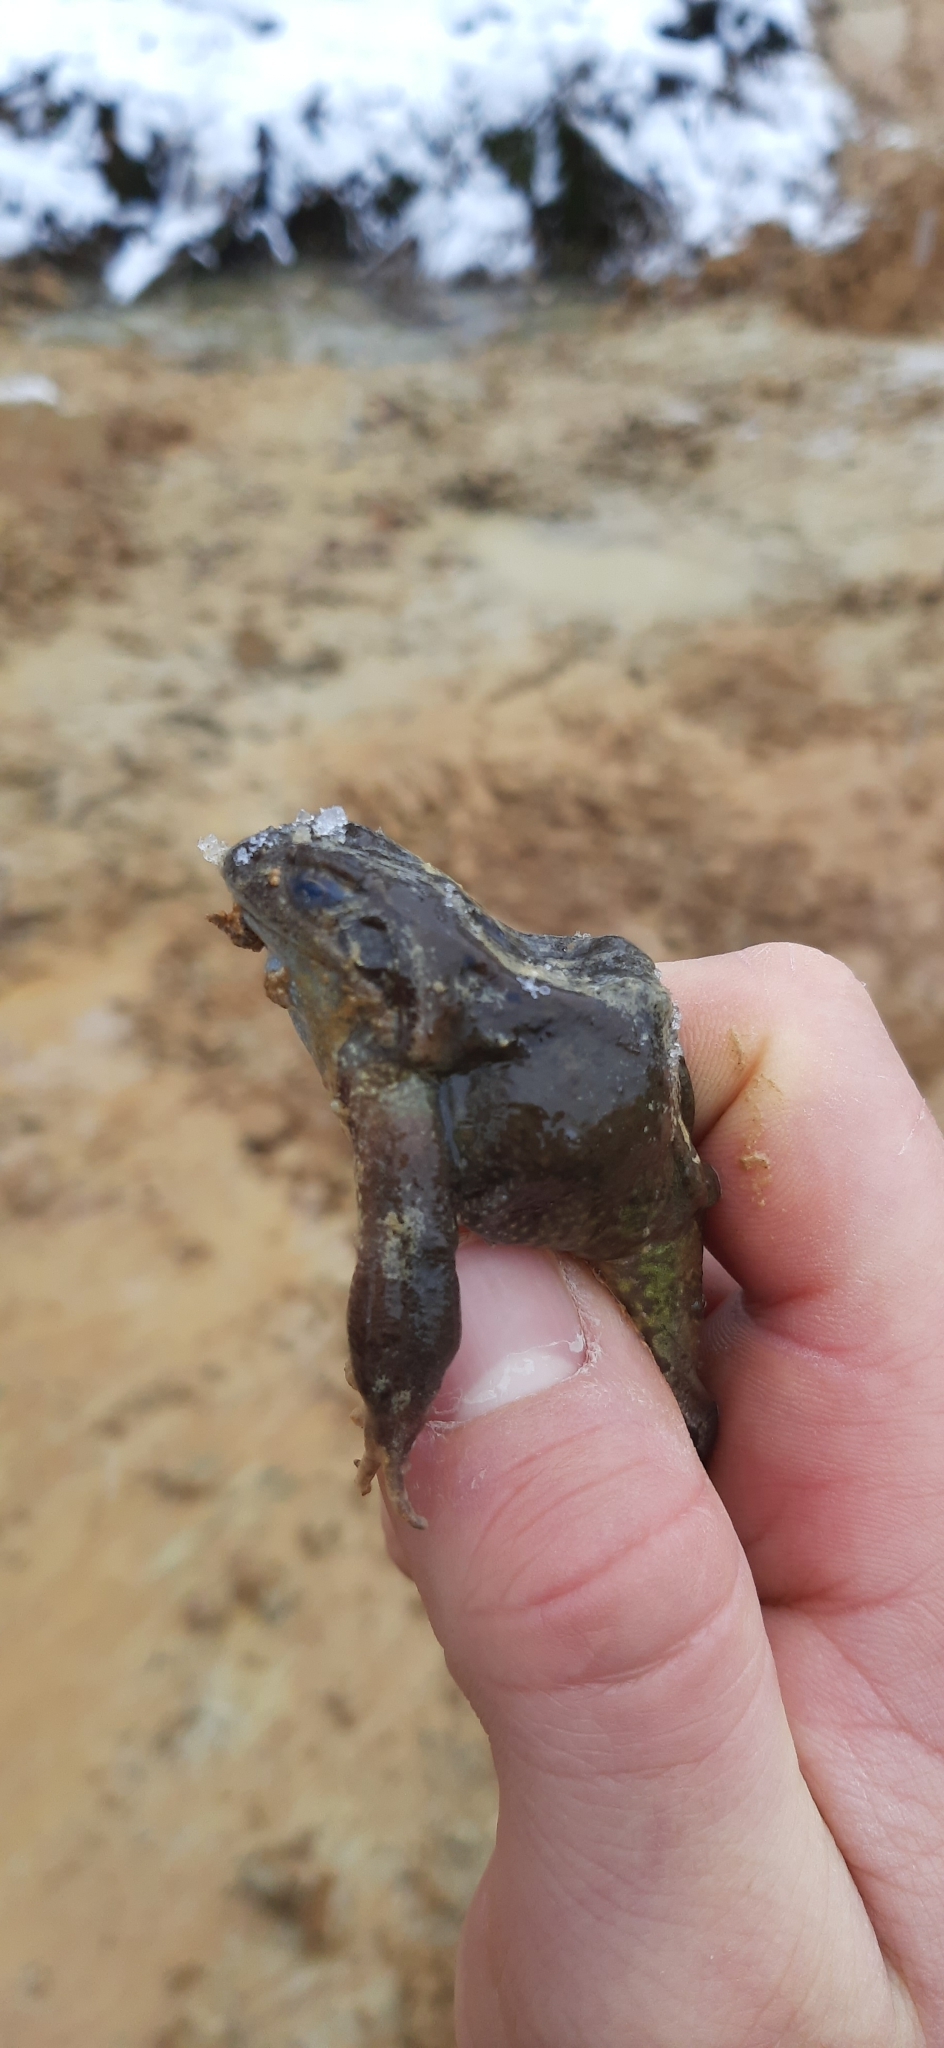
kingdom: Animalia
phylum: Chordata
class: Amphibia
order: Anura
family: Ranidae
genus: Rana
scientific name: Rana temporaria
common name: Common frog
